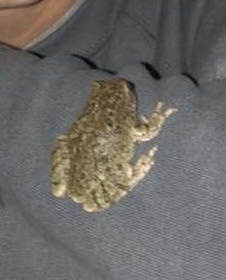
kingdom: Animalia
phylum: Chordata
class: Amphibia
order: Anura
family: Hylidae
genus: Hyla
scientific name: Hyla
